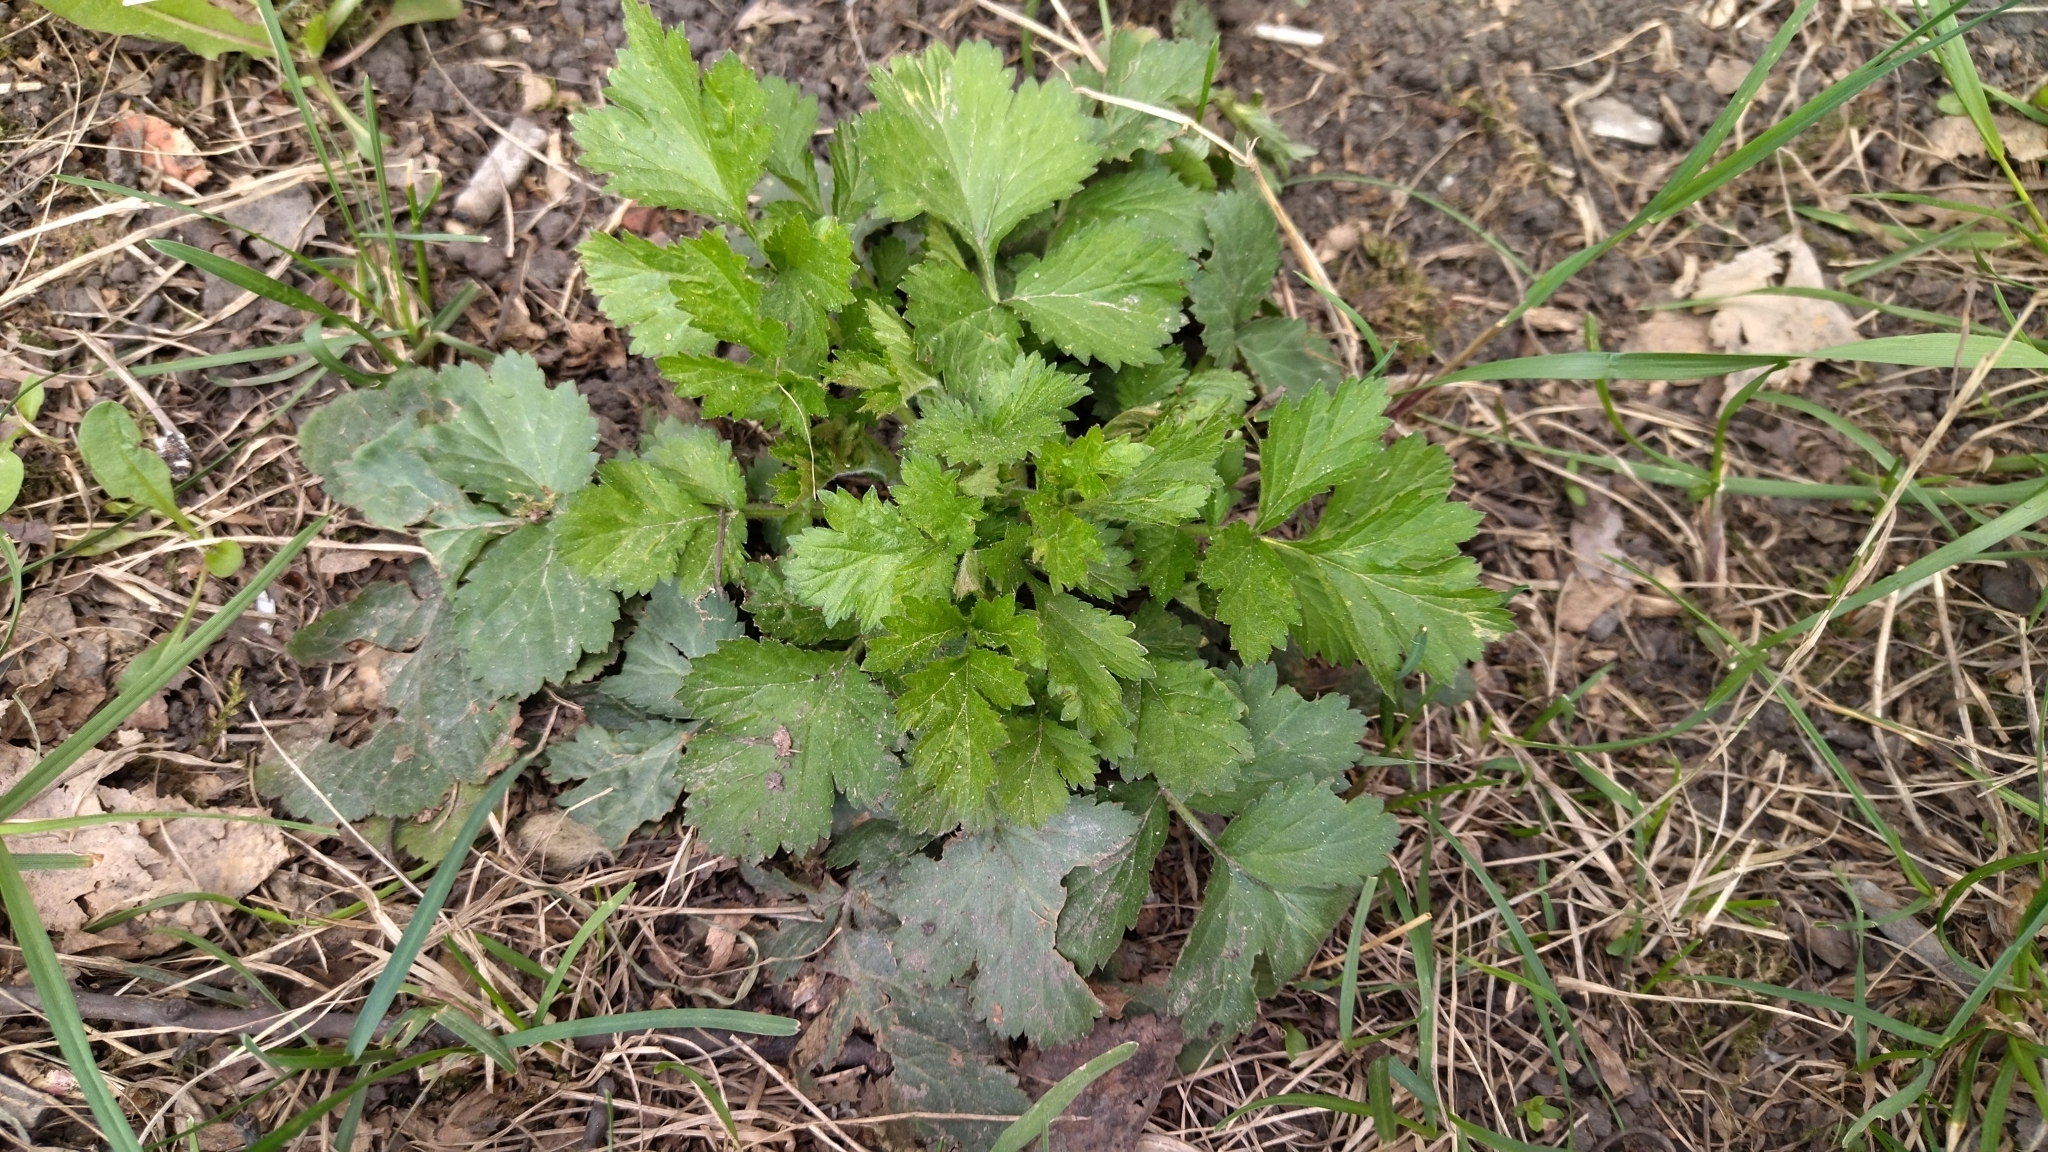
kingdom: Plantae
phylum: Tracheophyta
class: Magnoliopsida
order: Rosales
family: Rosaceae
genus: Geum
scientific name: Geum urbanum
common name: Wood avens
